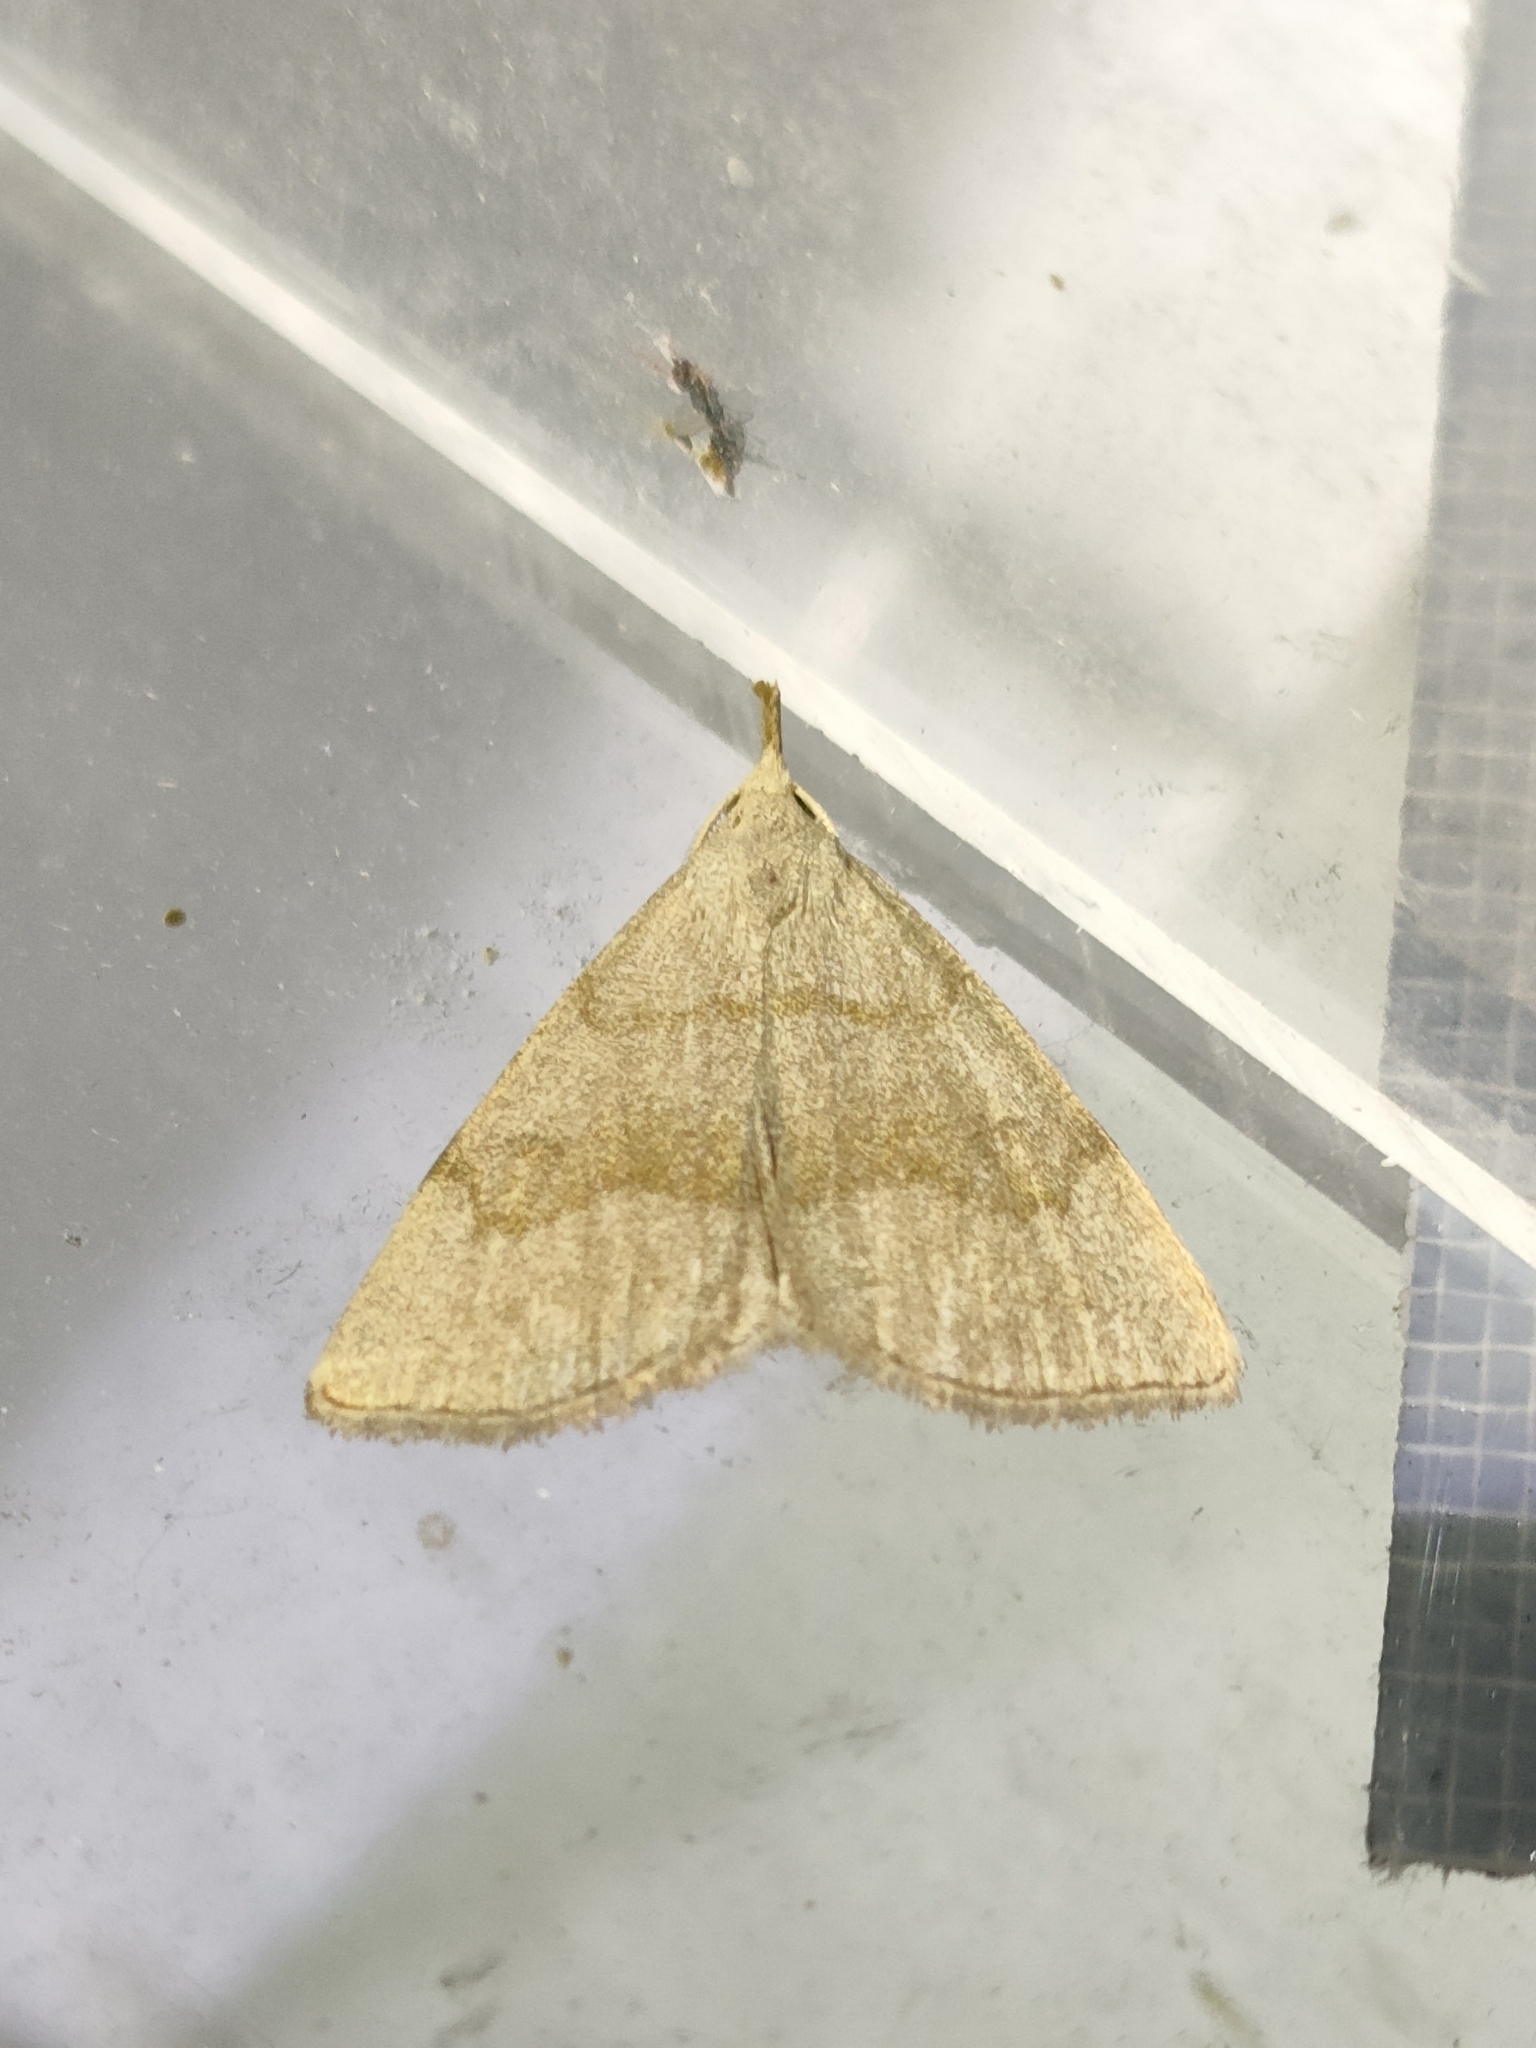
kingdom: Animalia
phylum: Arthropoda
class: Insecta
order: Lepidoptera
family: Erebidae
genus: Pechipogo
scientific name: Pechipogo strigilata
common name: Common fan-foot
